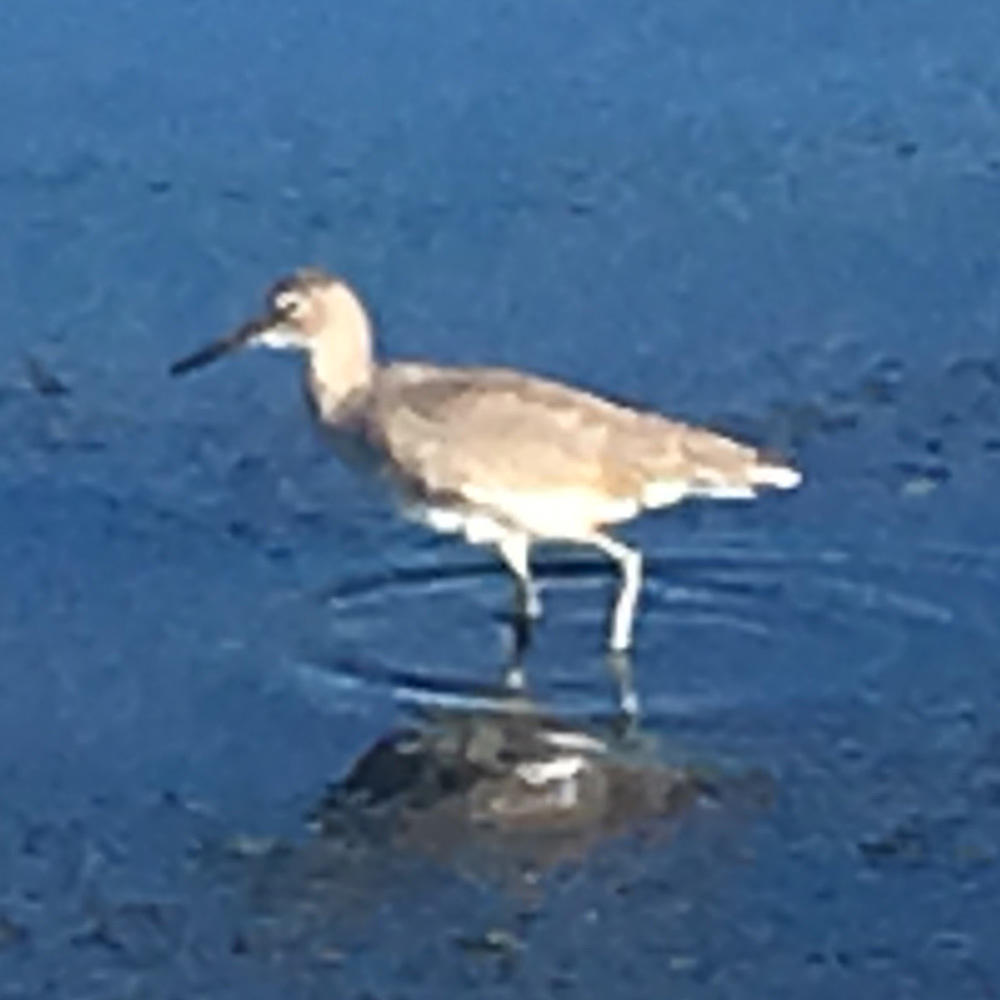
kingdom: Animalia
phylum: Chordata
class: Aves
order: Charadriiformes
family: Scolopacidae
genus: Tringa
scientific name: Tringa semipalmata
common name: Willet
